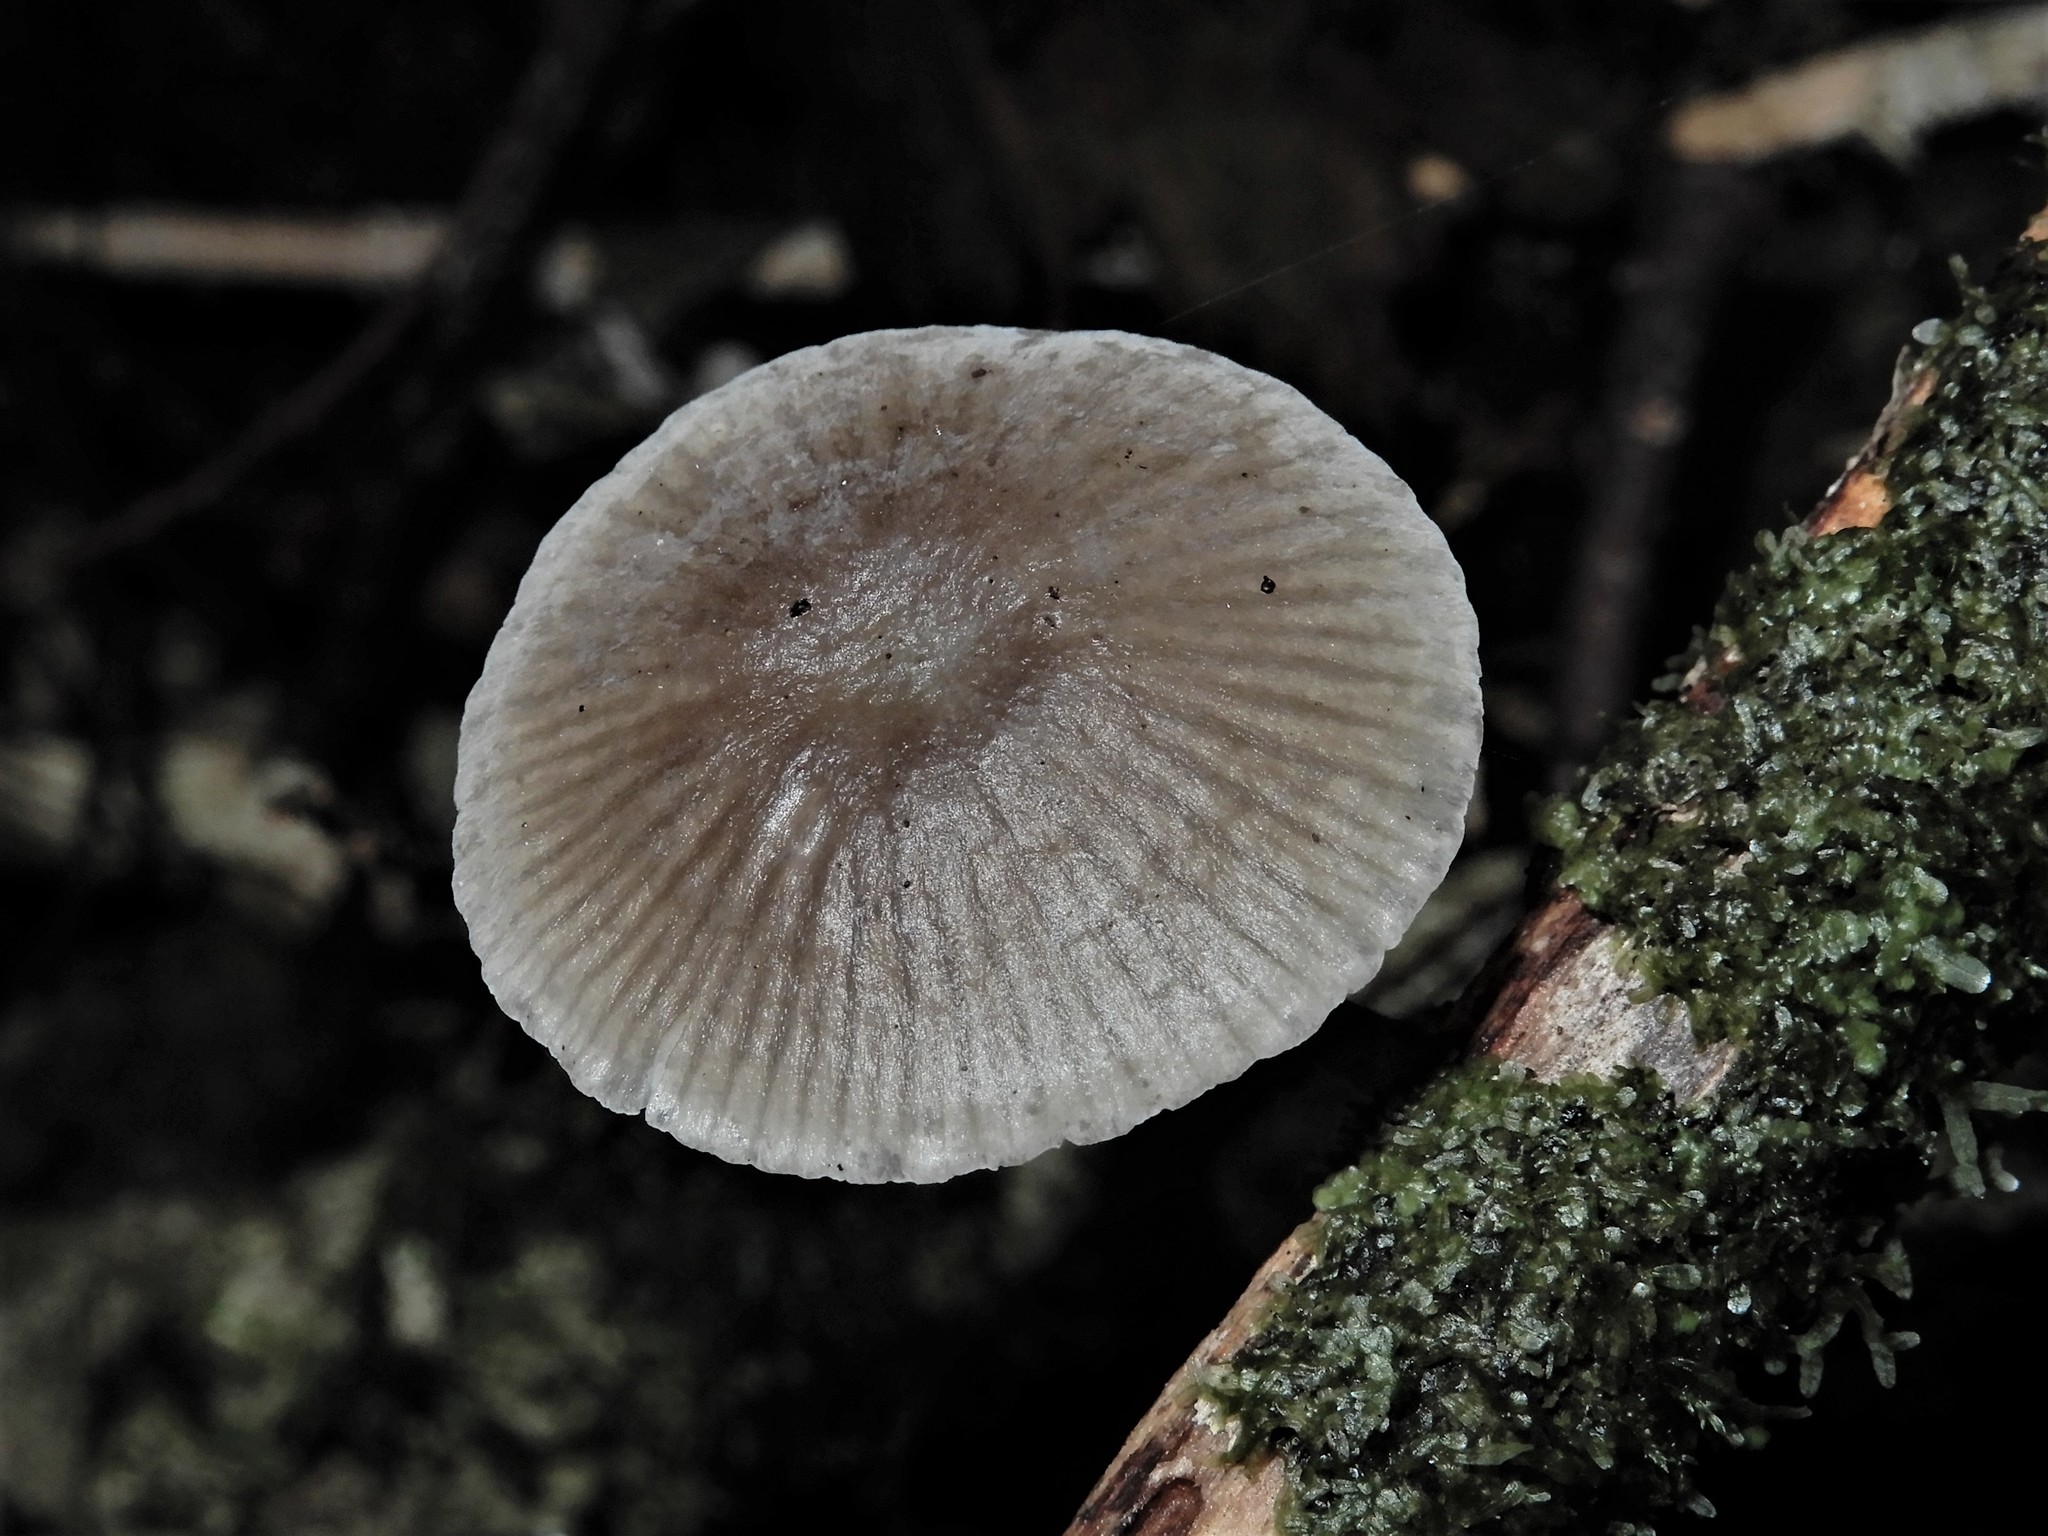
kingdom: Fungi
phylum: Basidiomycota
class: Agaricomycetes
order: Agaricales
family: Mycenaceae
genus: Mycena
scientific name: Mycena
